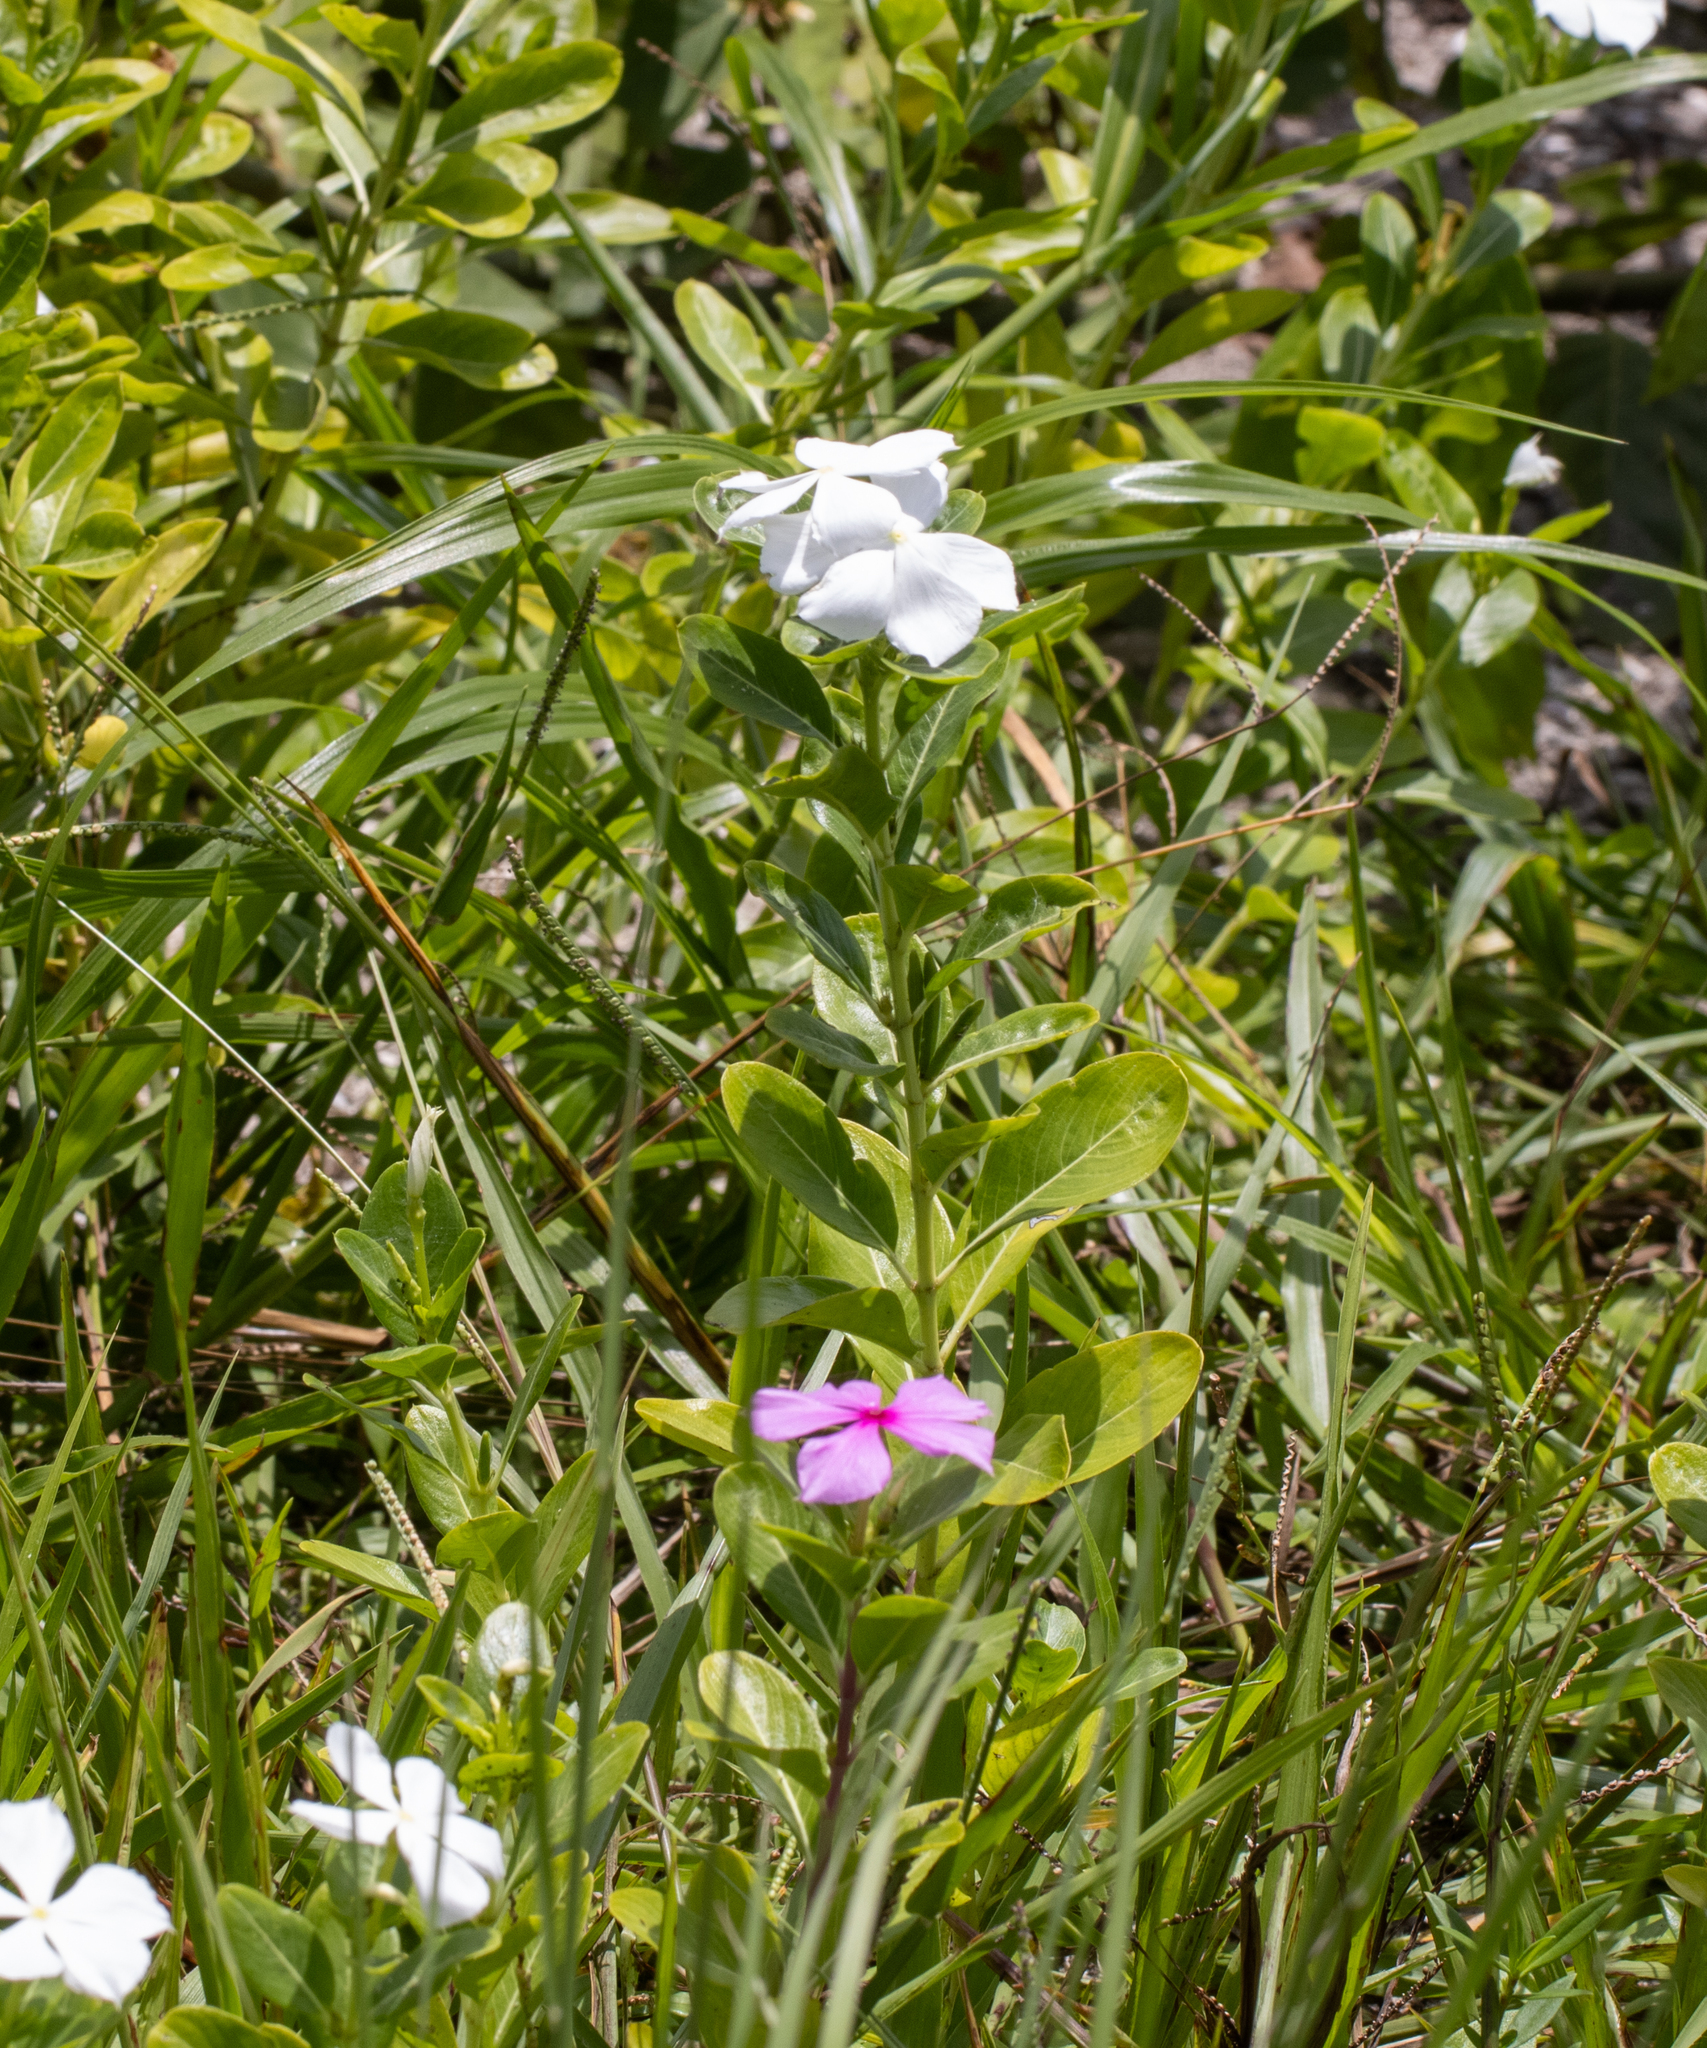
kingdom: Plantae
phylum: Tracheophyta
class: Magnoliopsida
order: Gentianales
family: Apocynaceae
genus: Catharanthus
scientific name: Catharanthus roseus
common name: Madagascar periwinkle
